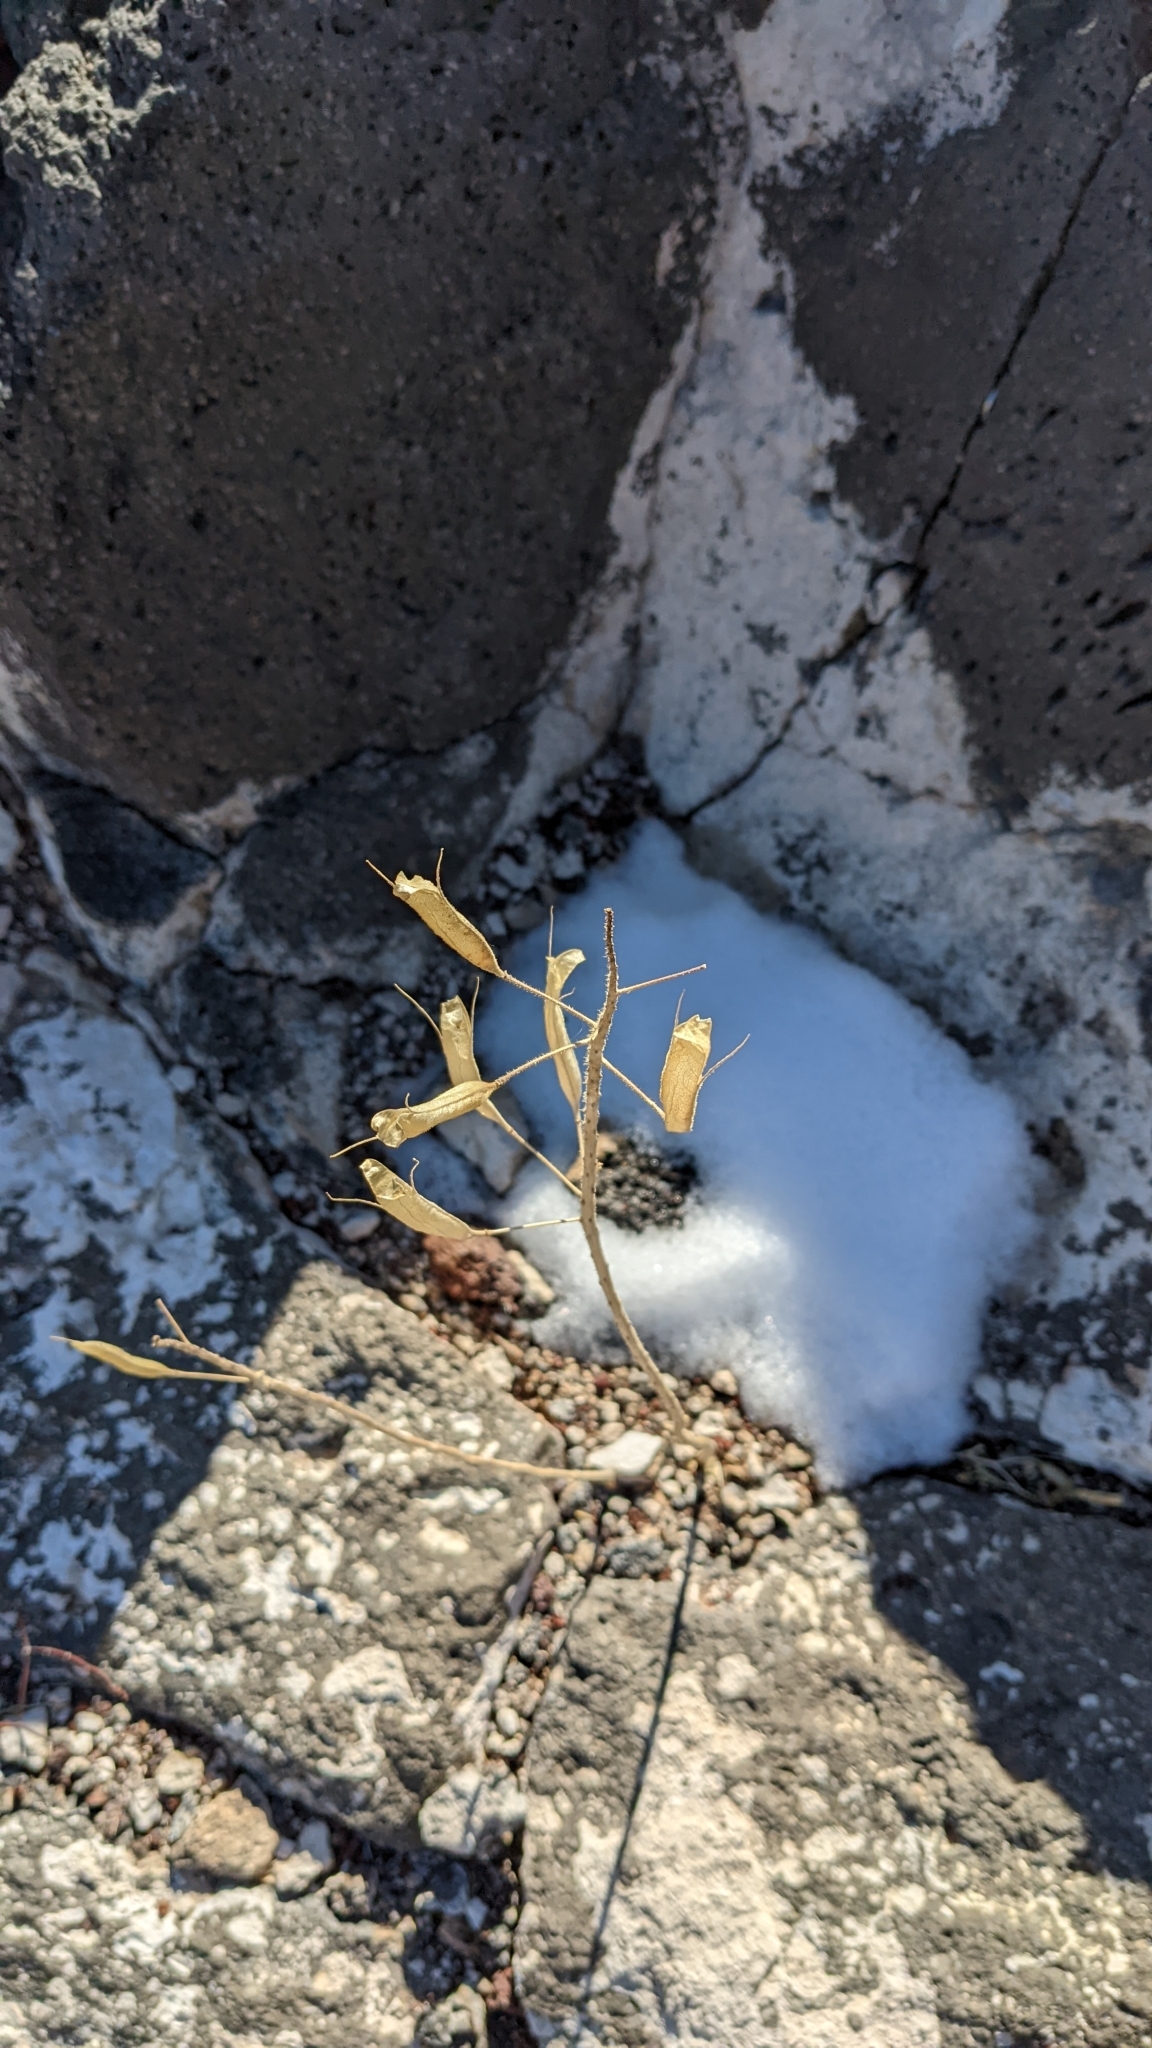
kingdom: Plantae
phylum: Tracheophyta
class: Magnoliopsida
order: Brassicales
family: Cleomaceae
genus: Polanisia
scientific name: Polanisia dodecandra
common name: Clammyweed
